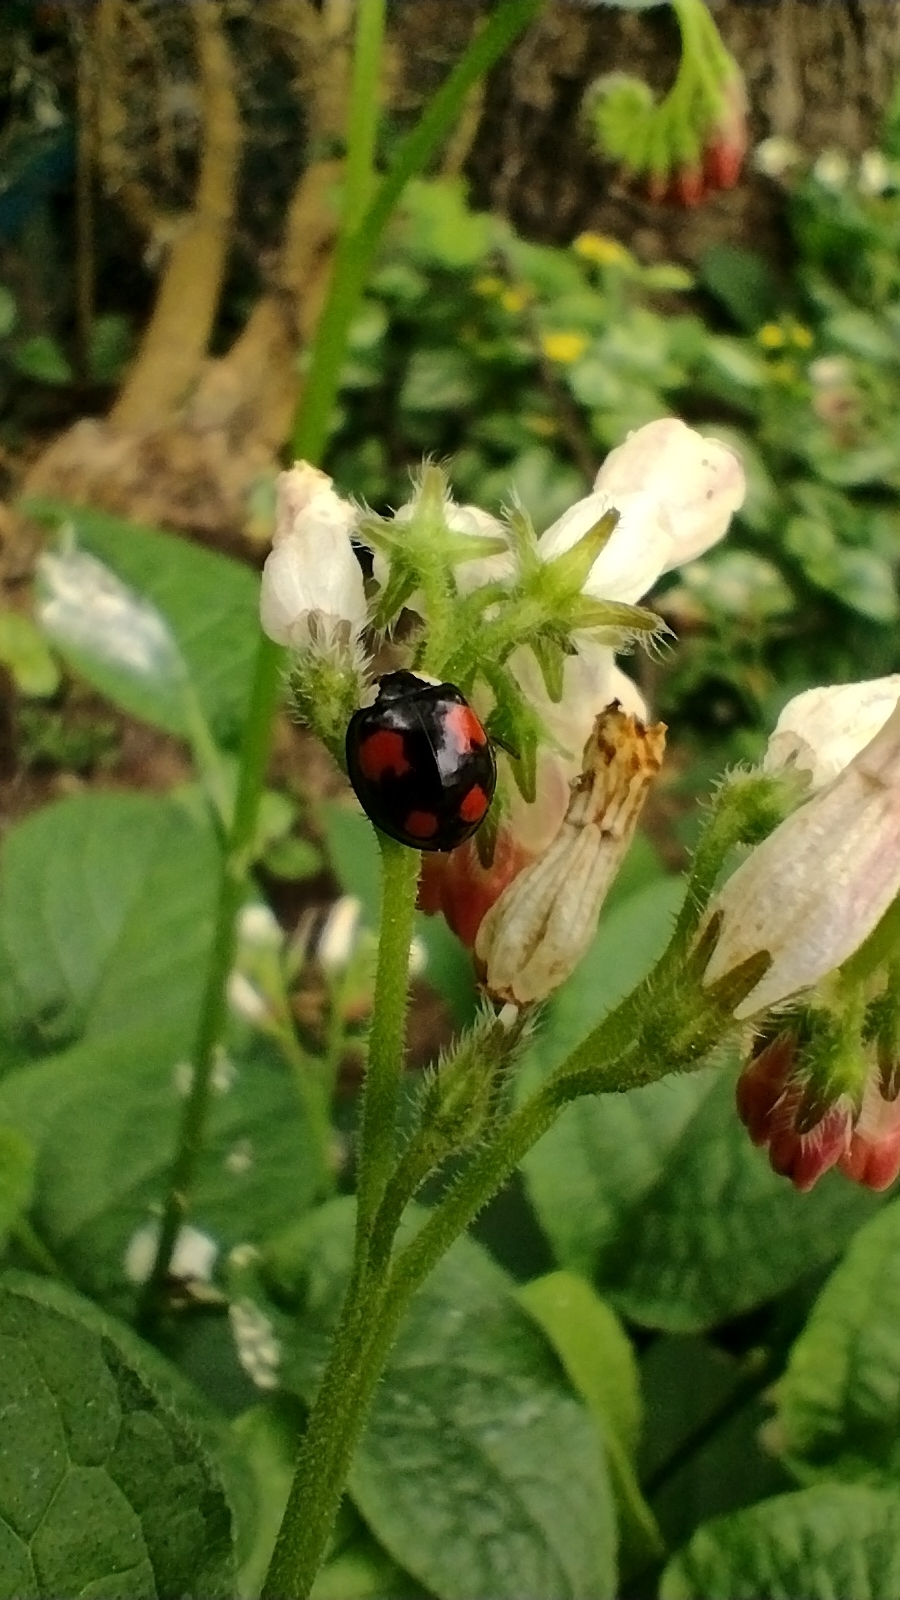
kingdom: Animalia
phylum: Arthropoda
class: Insecta
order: Coleoptera
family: Coccinellidae
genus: Harmonia
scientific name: Harmonia axyridis
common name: Harlequin ladybird
